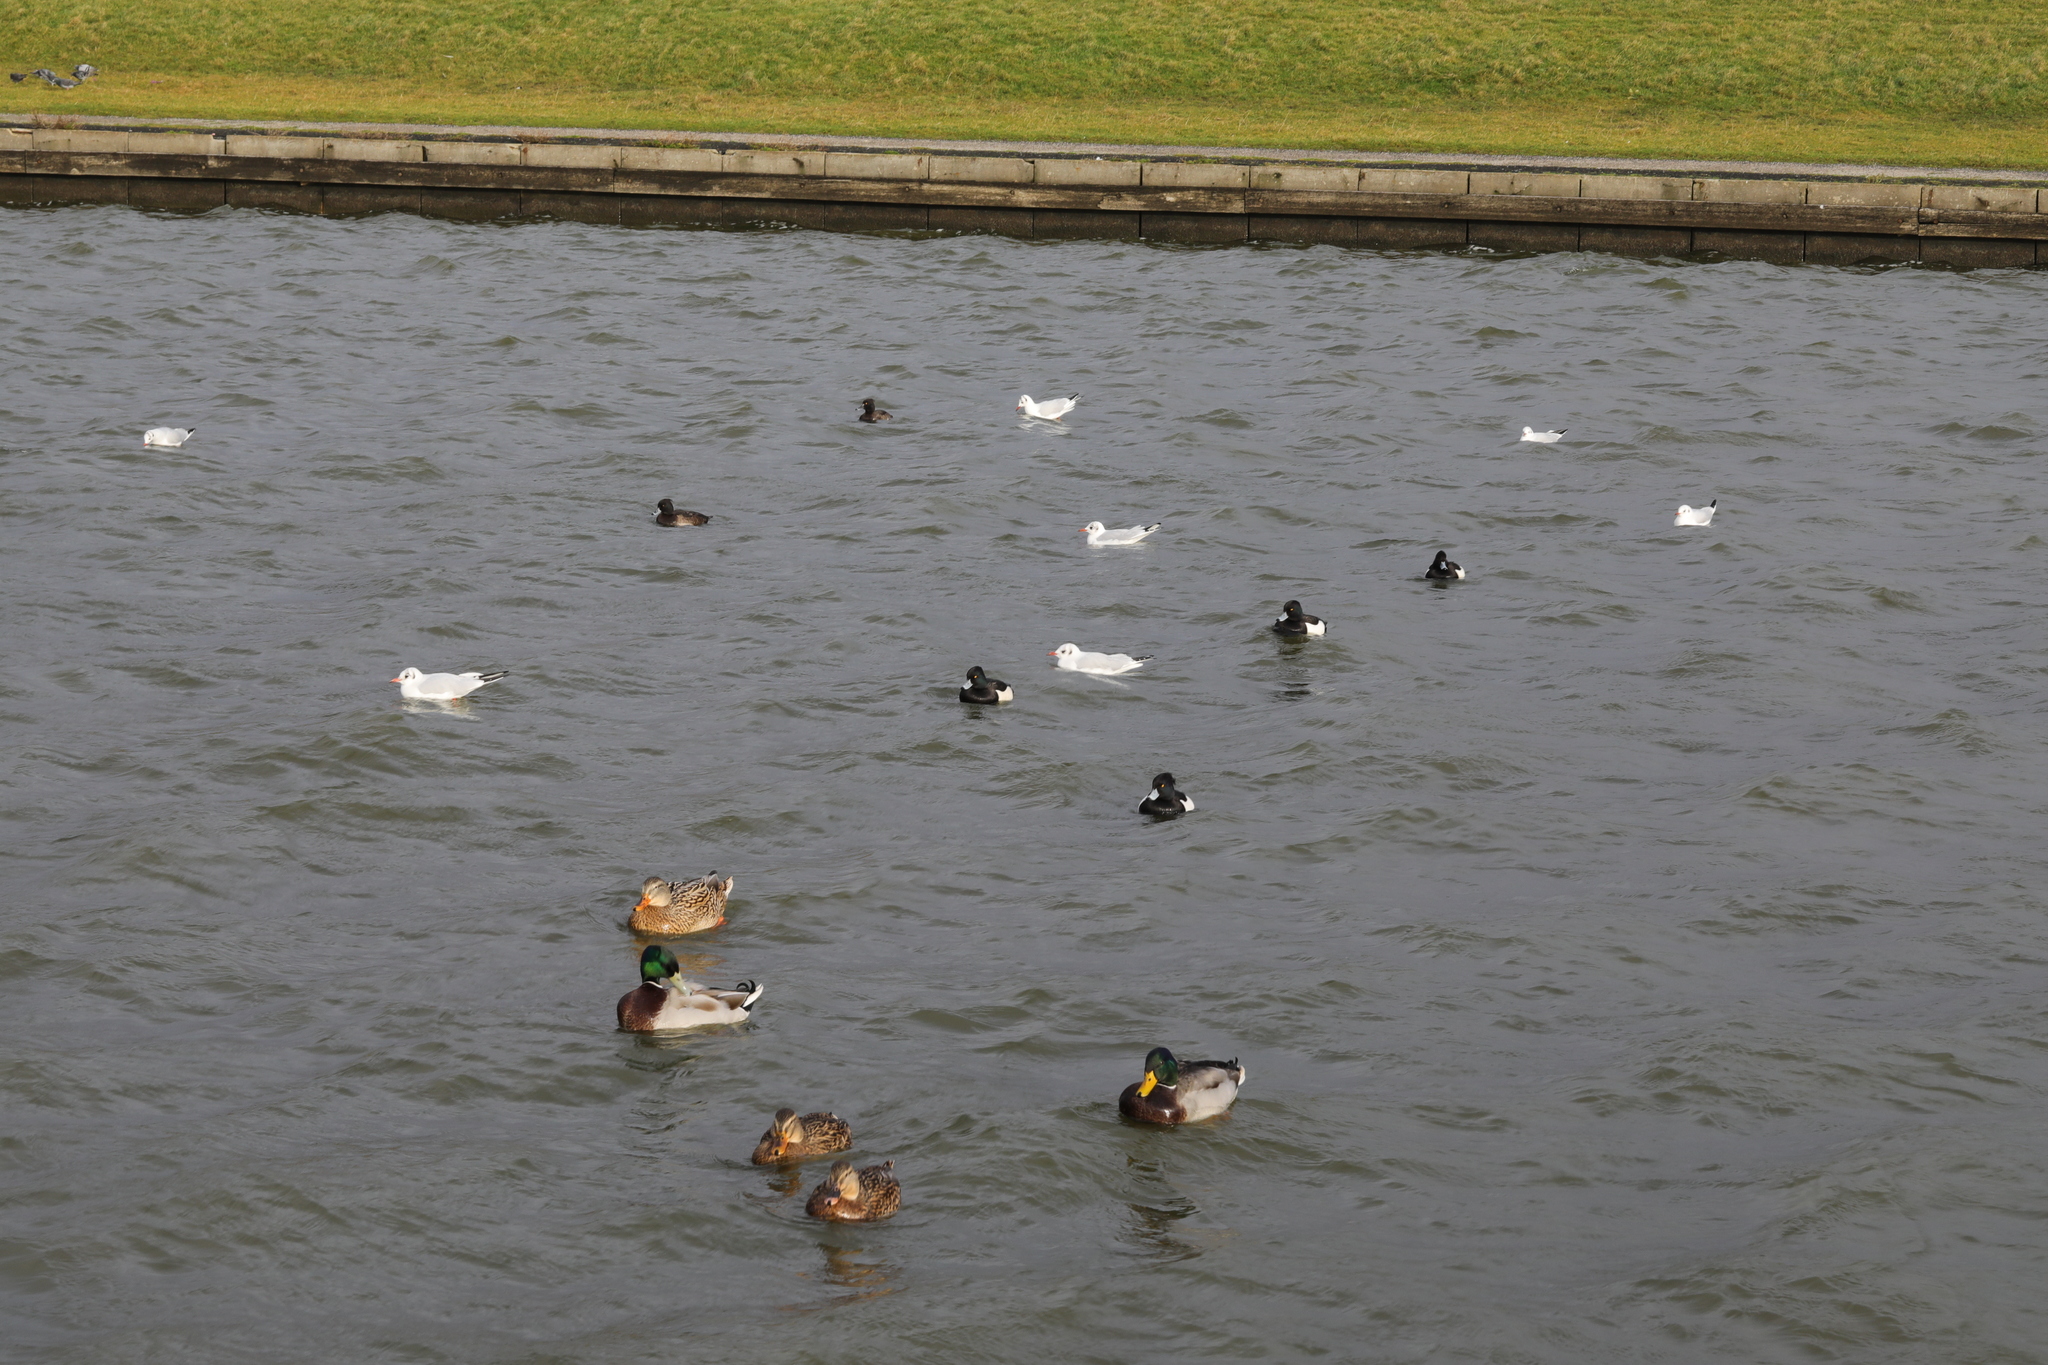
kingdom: Animalia
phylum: Chordata
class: Aves
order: Anseriformes
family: Anatidae
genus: Aythya
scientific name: Aythya fuligula
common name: Tufted duck
